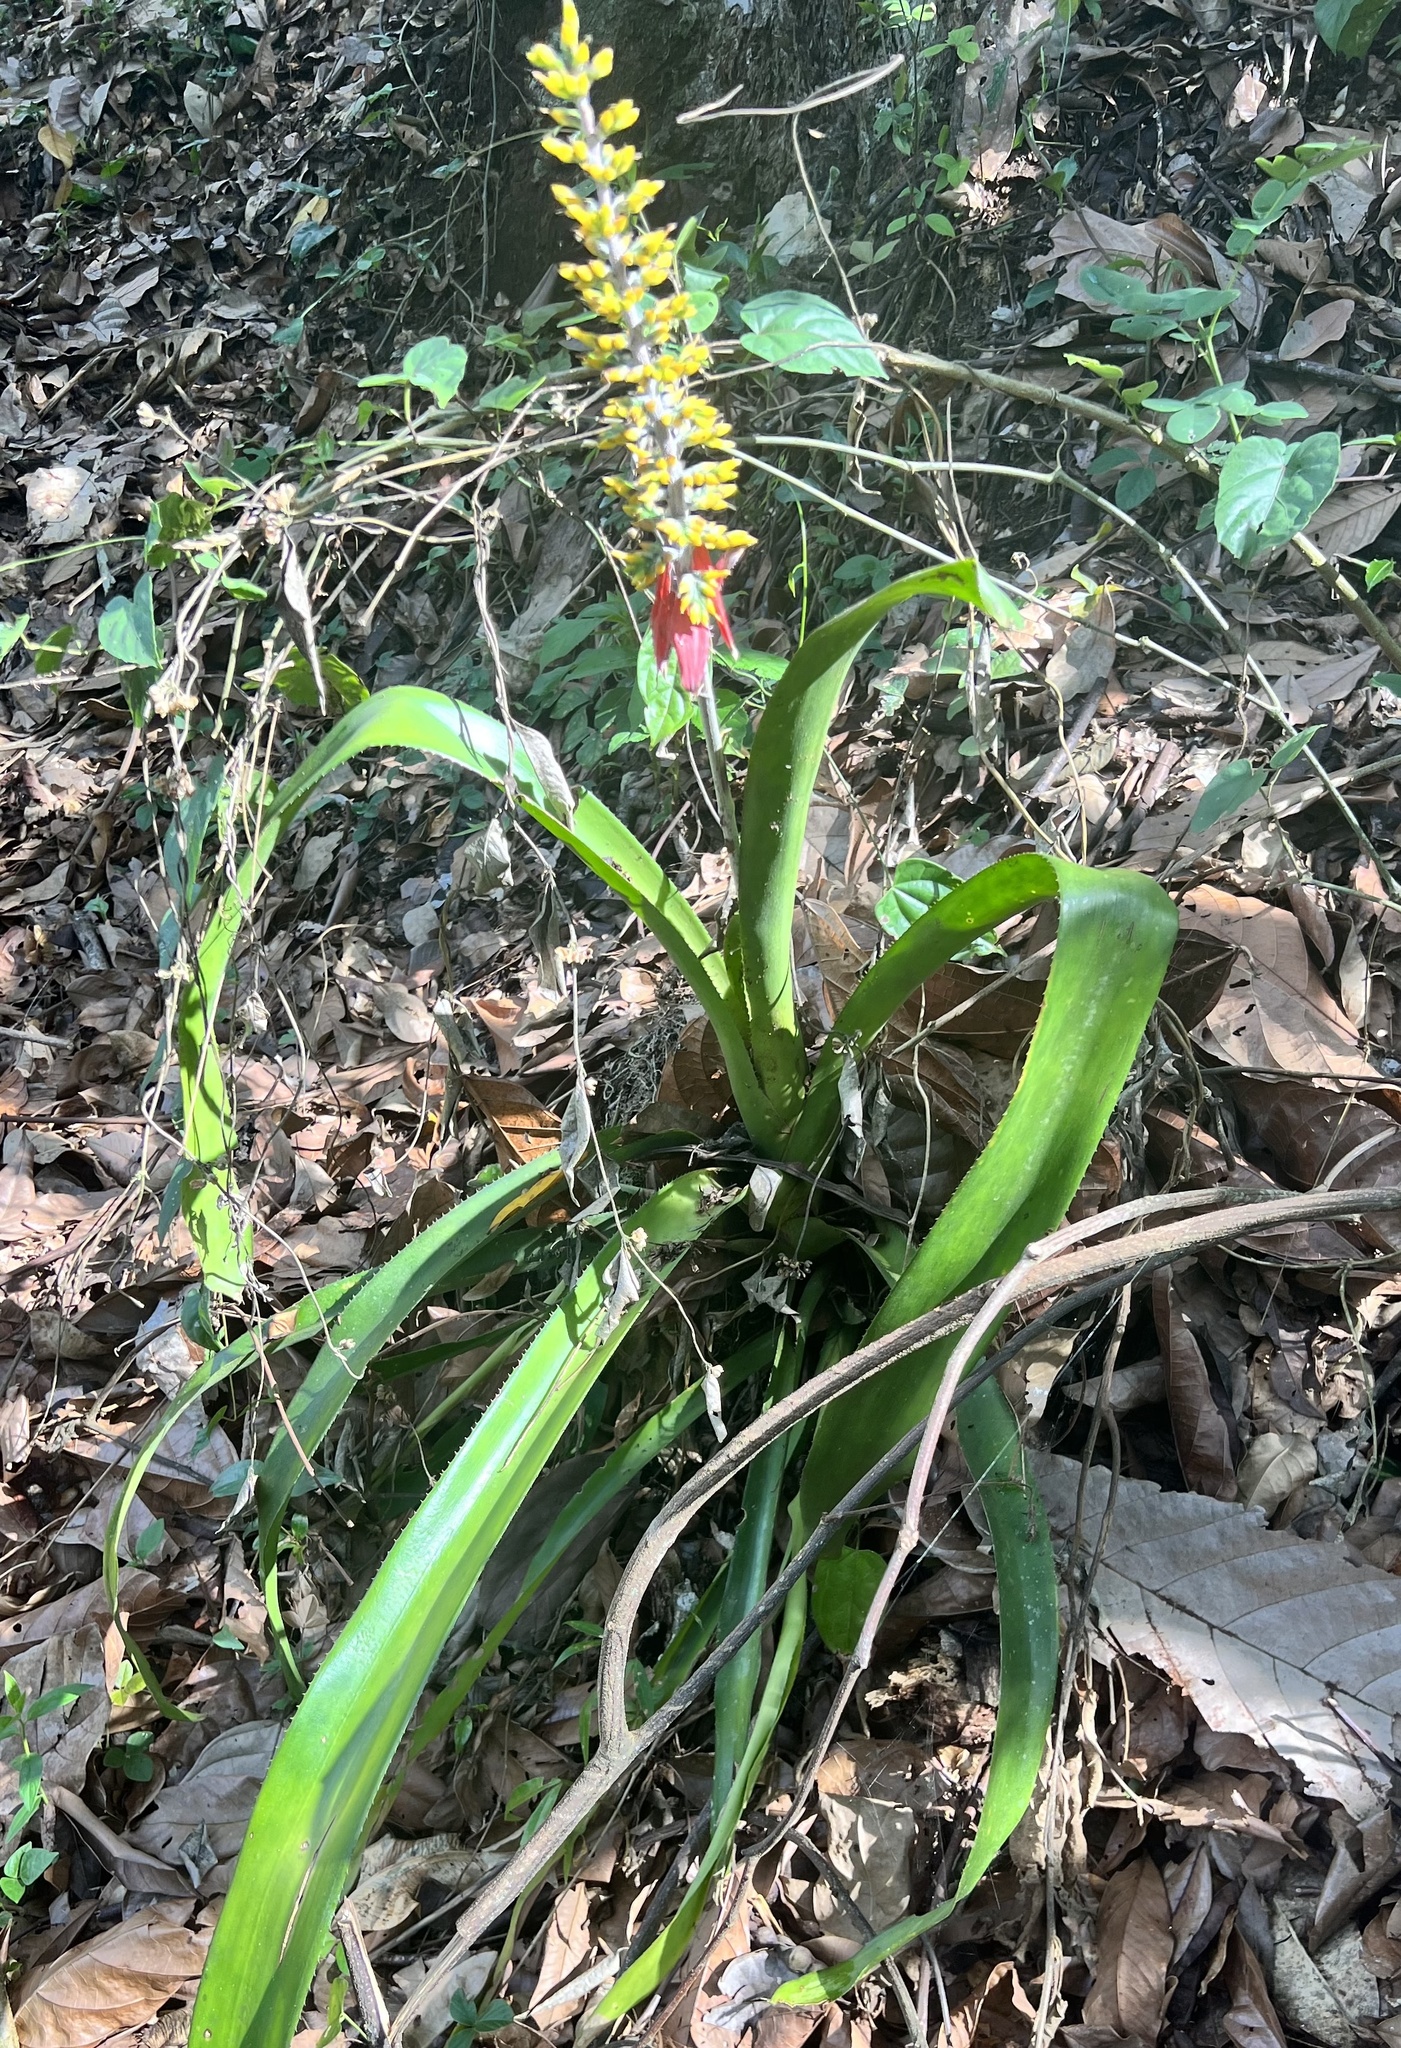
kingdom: Plantae
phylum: Tracheophyta
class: Liliopsida
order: Poales
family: Bromeliaceae
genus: Aechmea
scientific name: Aechmea angustifolia
